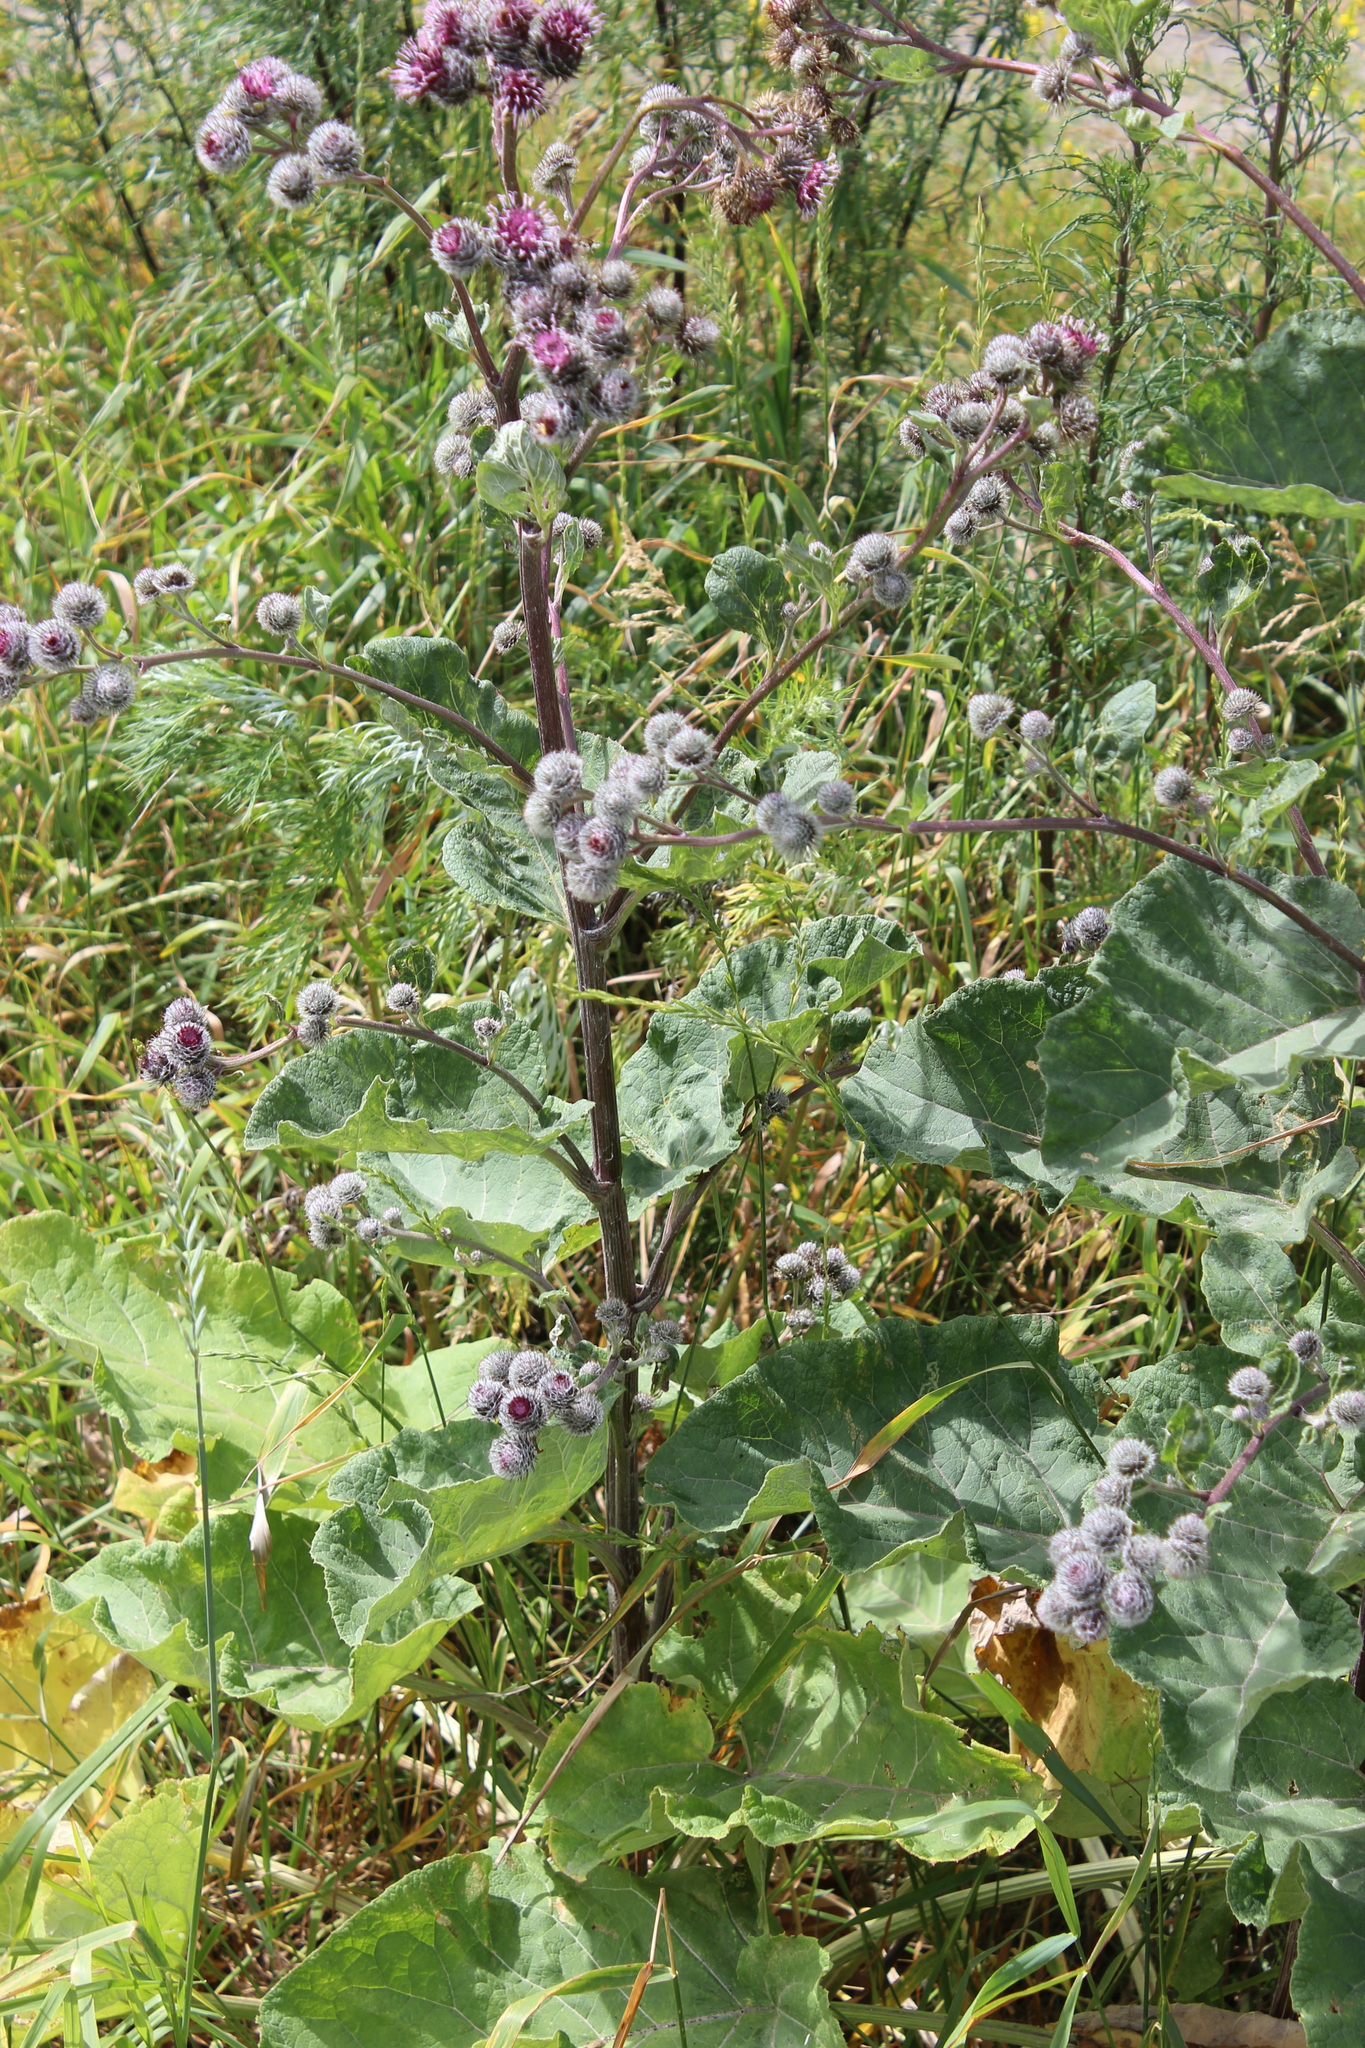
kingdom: Plantae
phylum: Tracheophyta
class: Magnoliopsida
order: Asterales
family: Asteraceae
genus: Arctium
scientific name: Arctium tomentosum
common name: Woolly burdock
